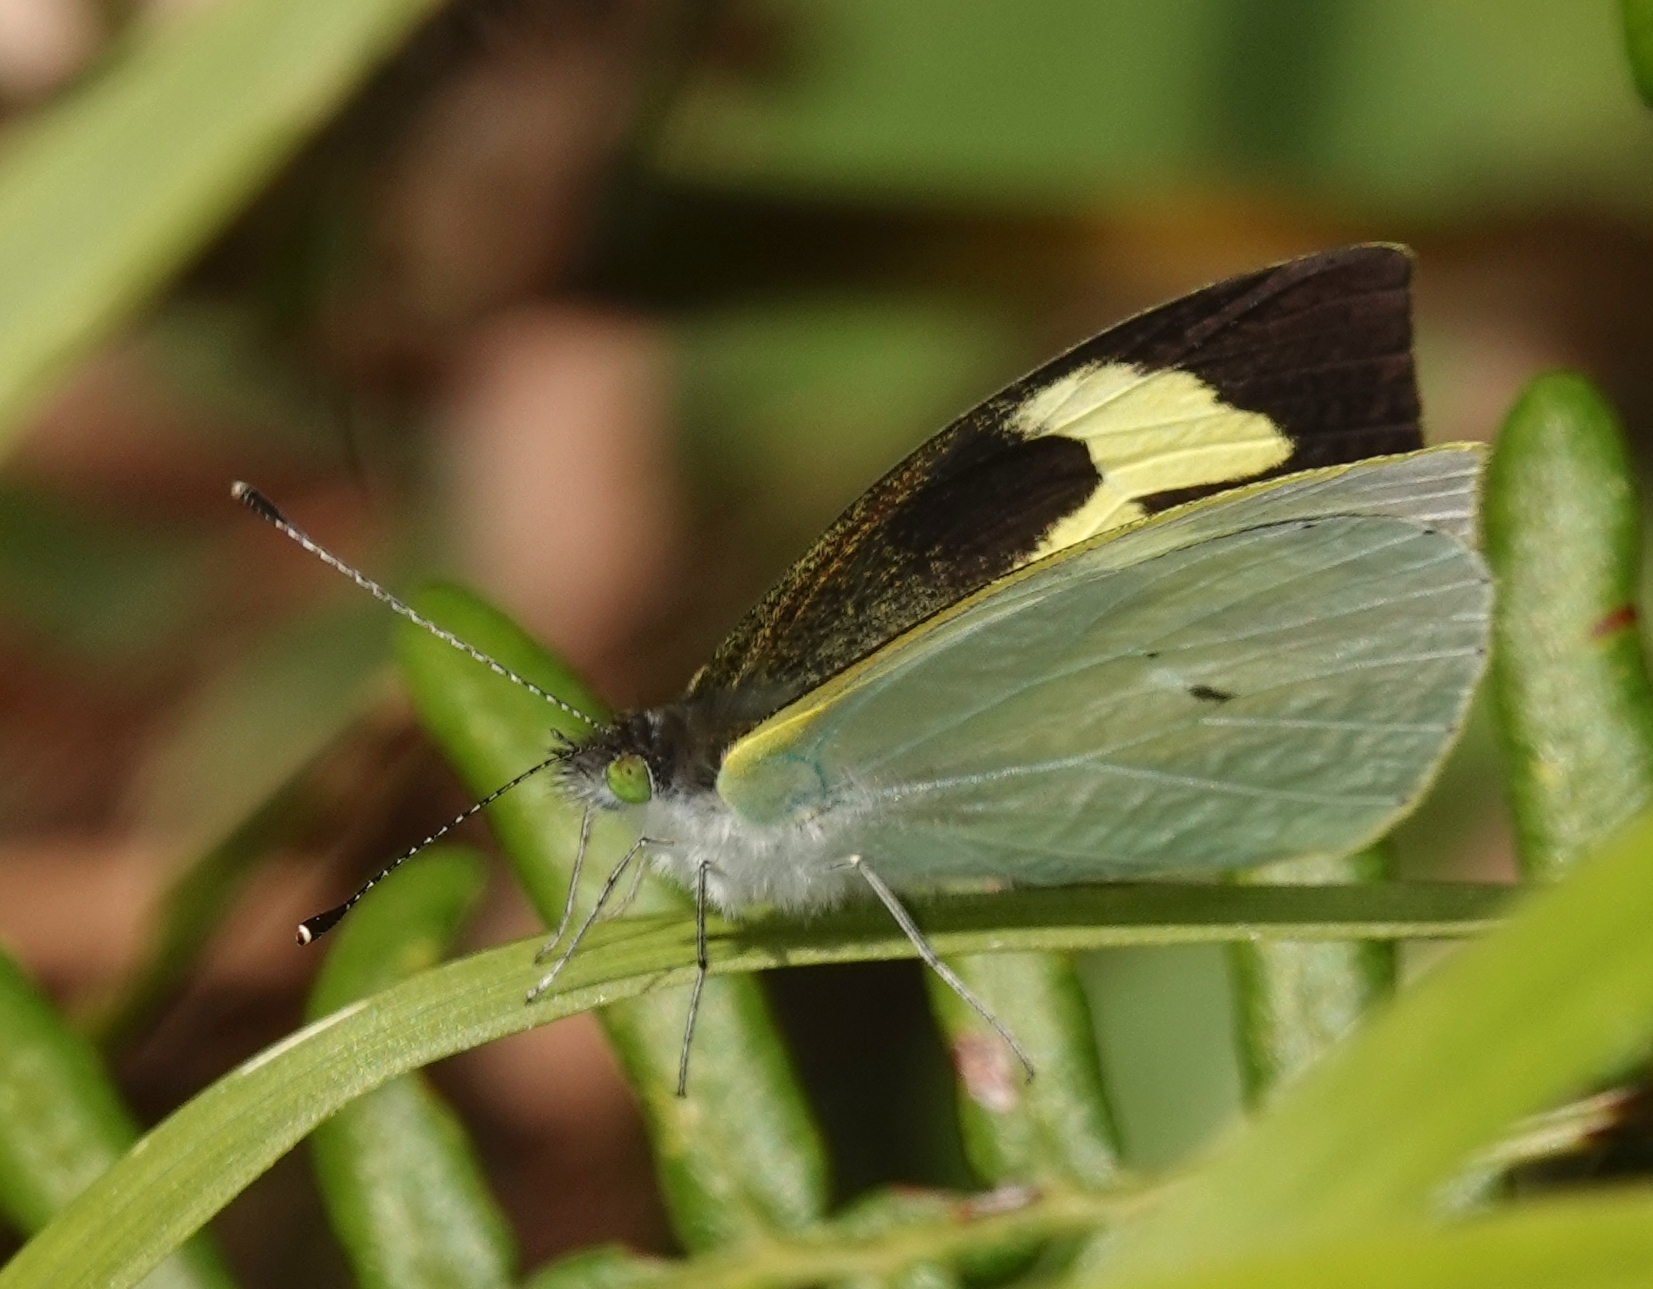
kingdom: Animalia
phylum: Arthropoda
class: Insecta
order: Lepidoptera
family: Pieridae
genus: Leptophobia
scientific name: Leptophobia eleone
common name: Silky wanderer
